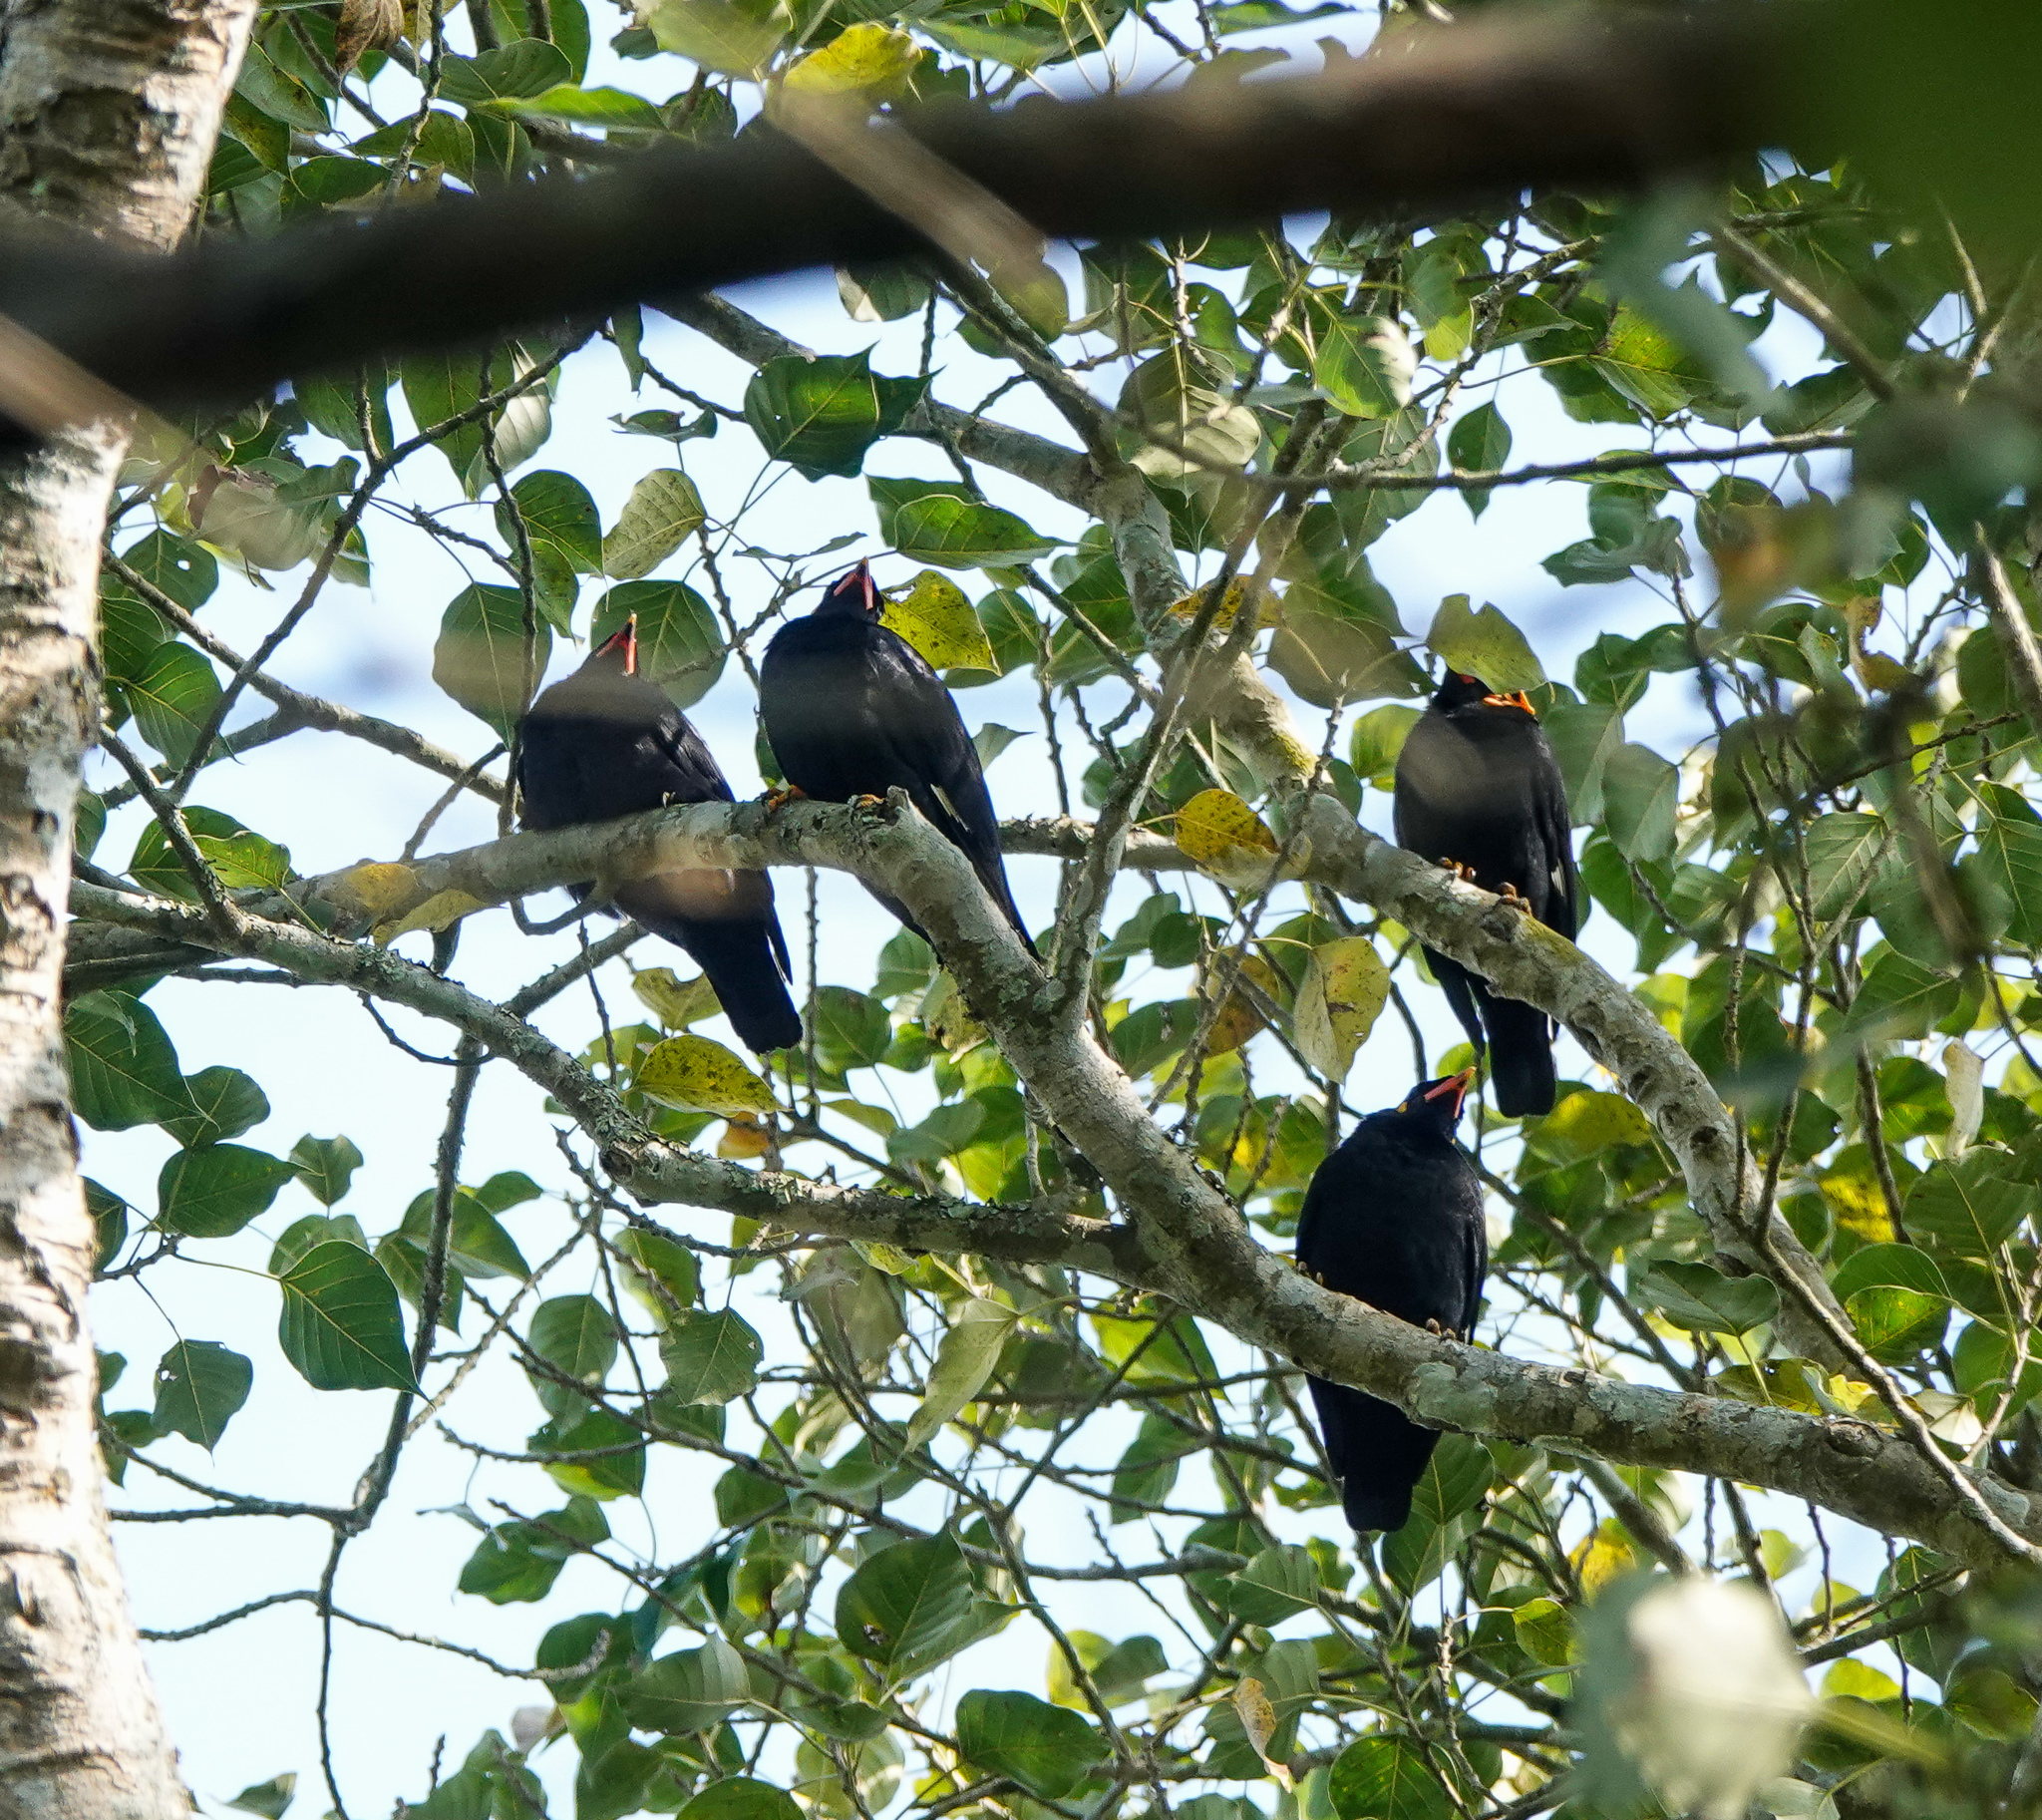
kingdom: Animalia
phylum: Chordata
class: Aves
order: Passeriformes
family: Sturnidae
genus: Gracula
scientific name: Gracula religiosa
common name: Common hill myna
